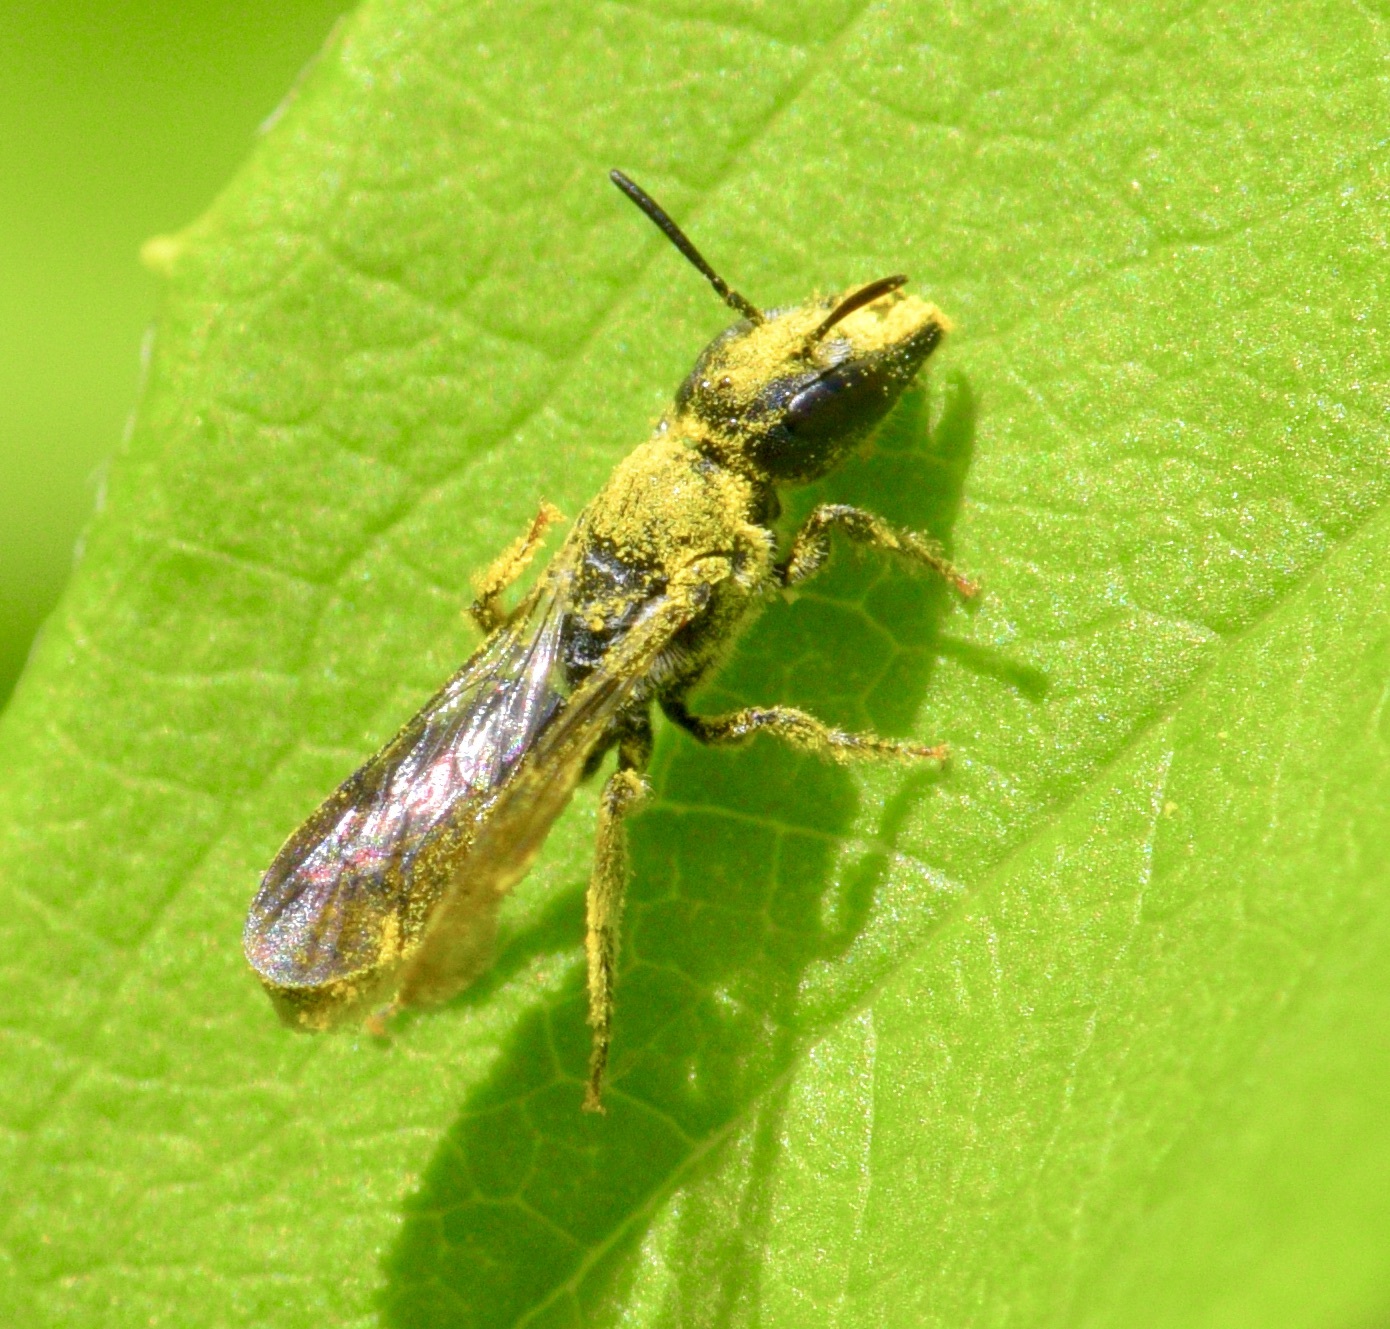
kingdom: Animalia
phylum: Arthropoda
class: Insecta
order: Hymenoptera
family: Megachilidae
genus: Chelostoma
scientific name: Chelostoma philadelphi
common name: Mock-orange scissor bee
